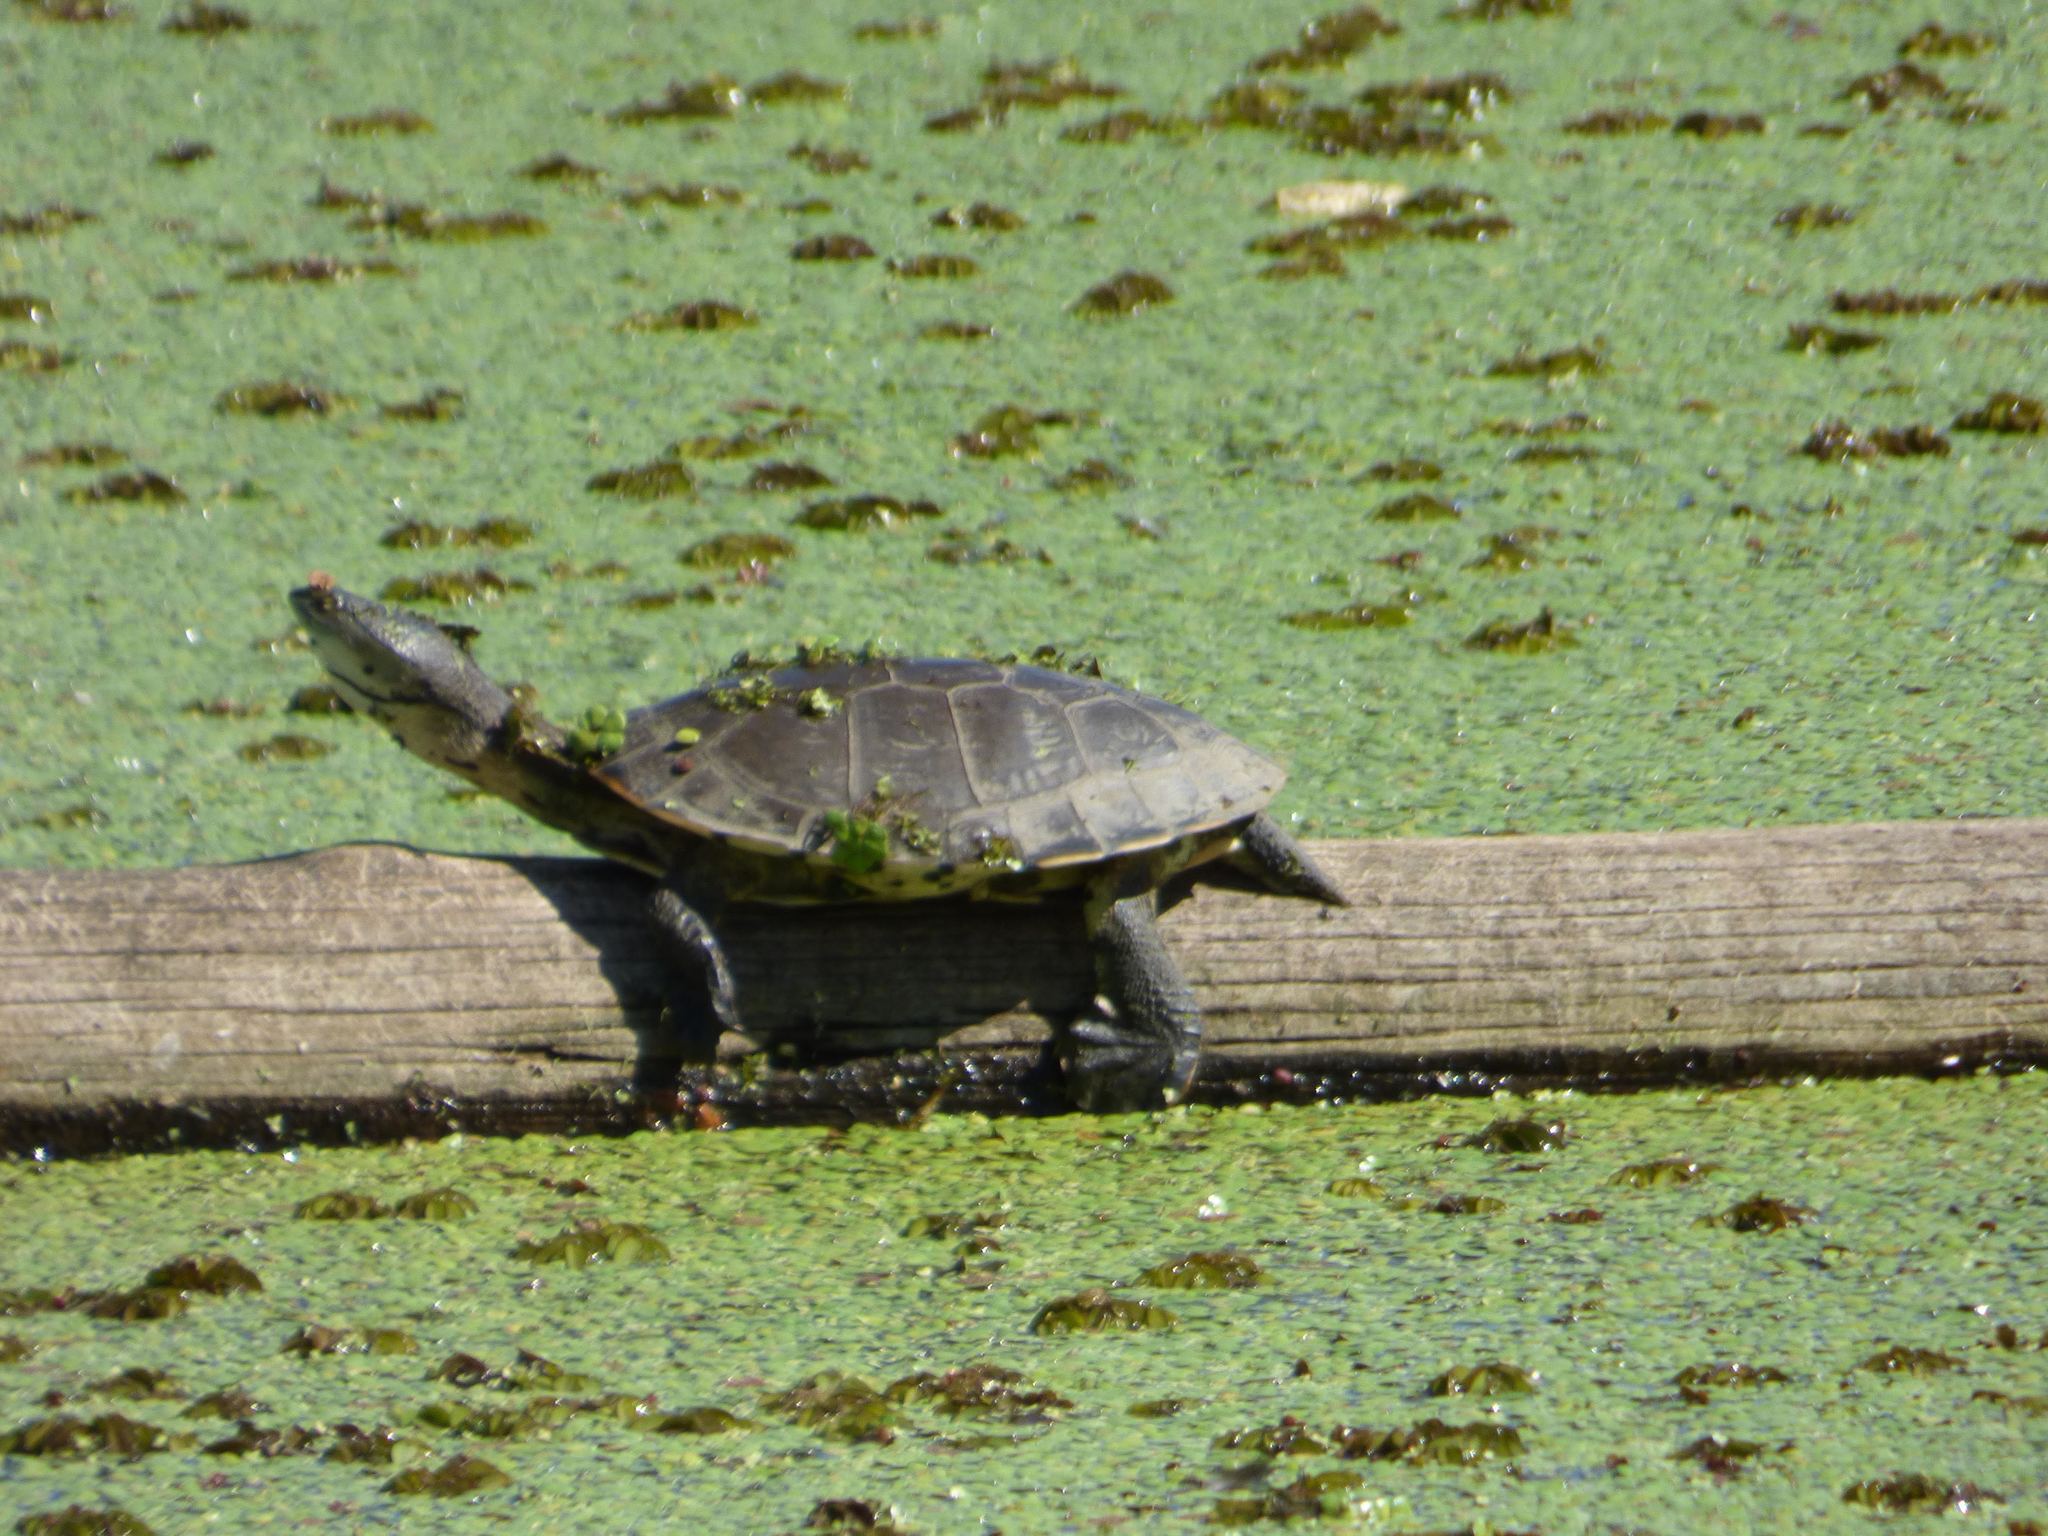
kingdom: Animalia
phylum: Chordata
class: Testudines
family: Chelidae
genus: Phrynops
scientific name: Phrynops hilarii
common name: Side-necked turtle of saint hillaire
